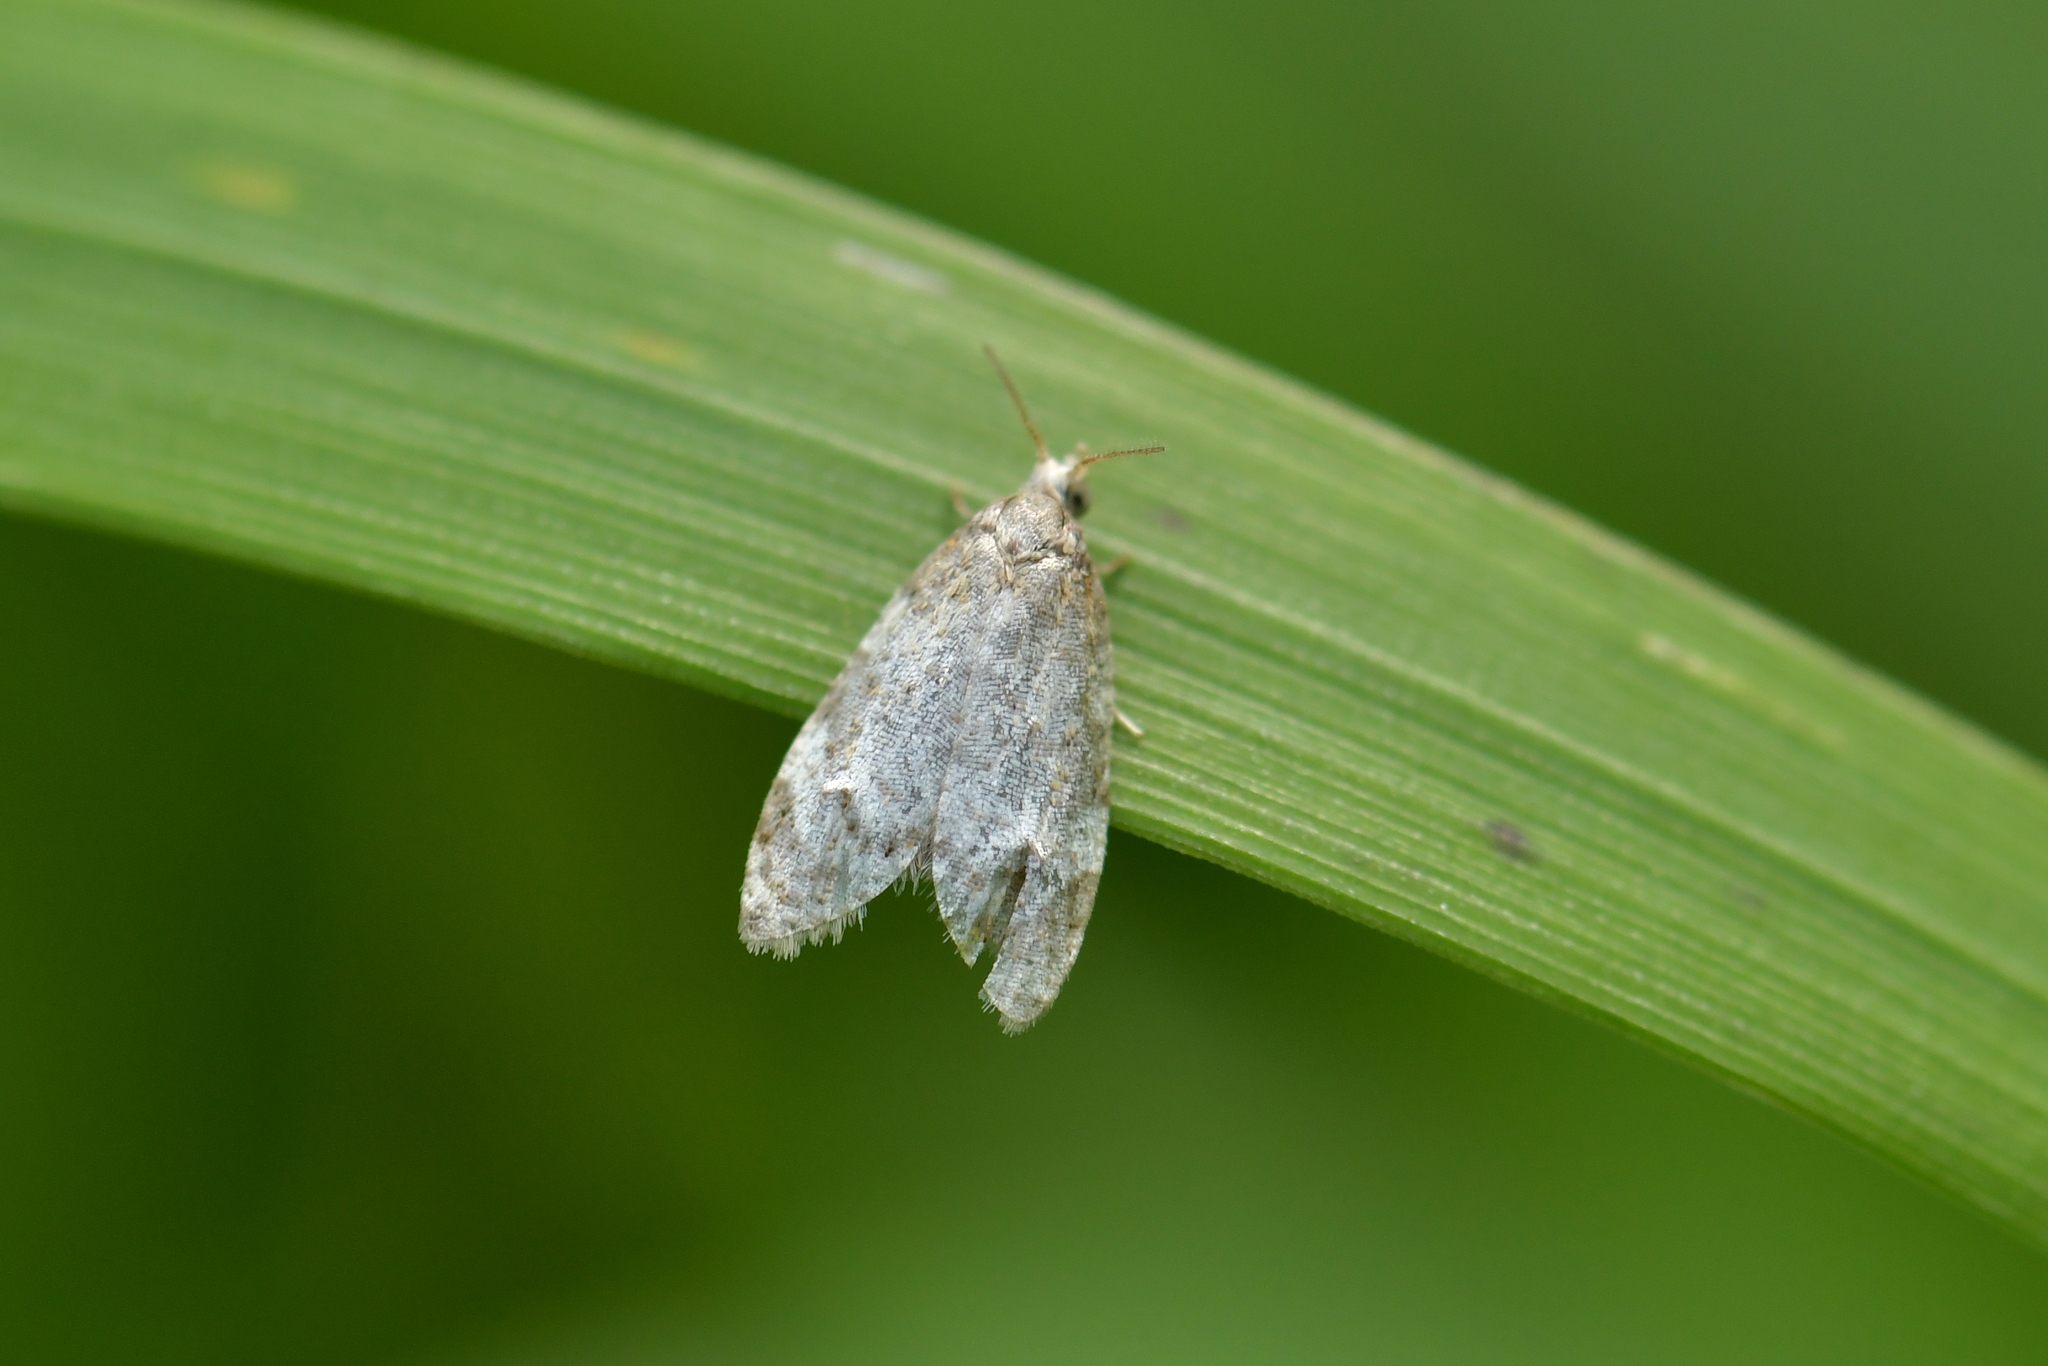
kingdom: Animalia
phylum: Arthropoda
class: Insecta
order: Lepidoptera
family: Tortricidae
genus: Dipterina
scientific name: Dipterina imbriferana
